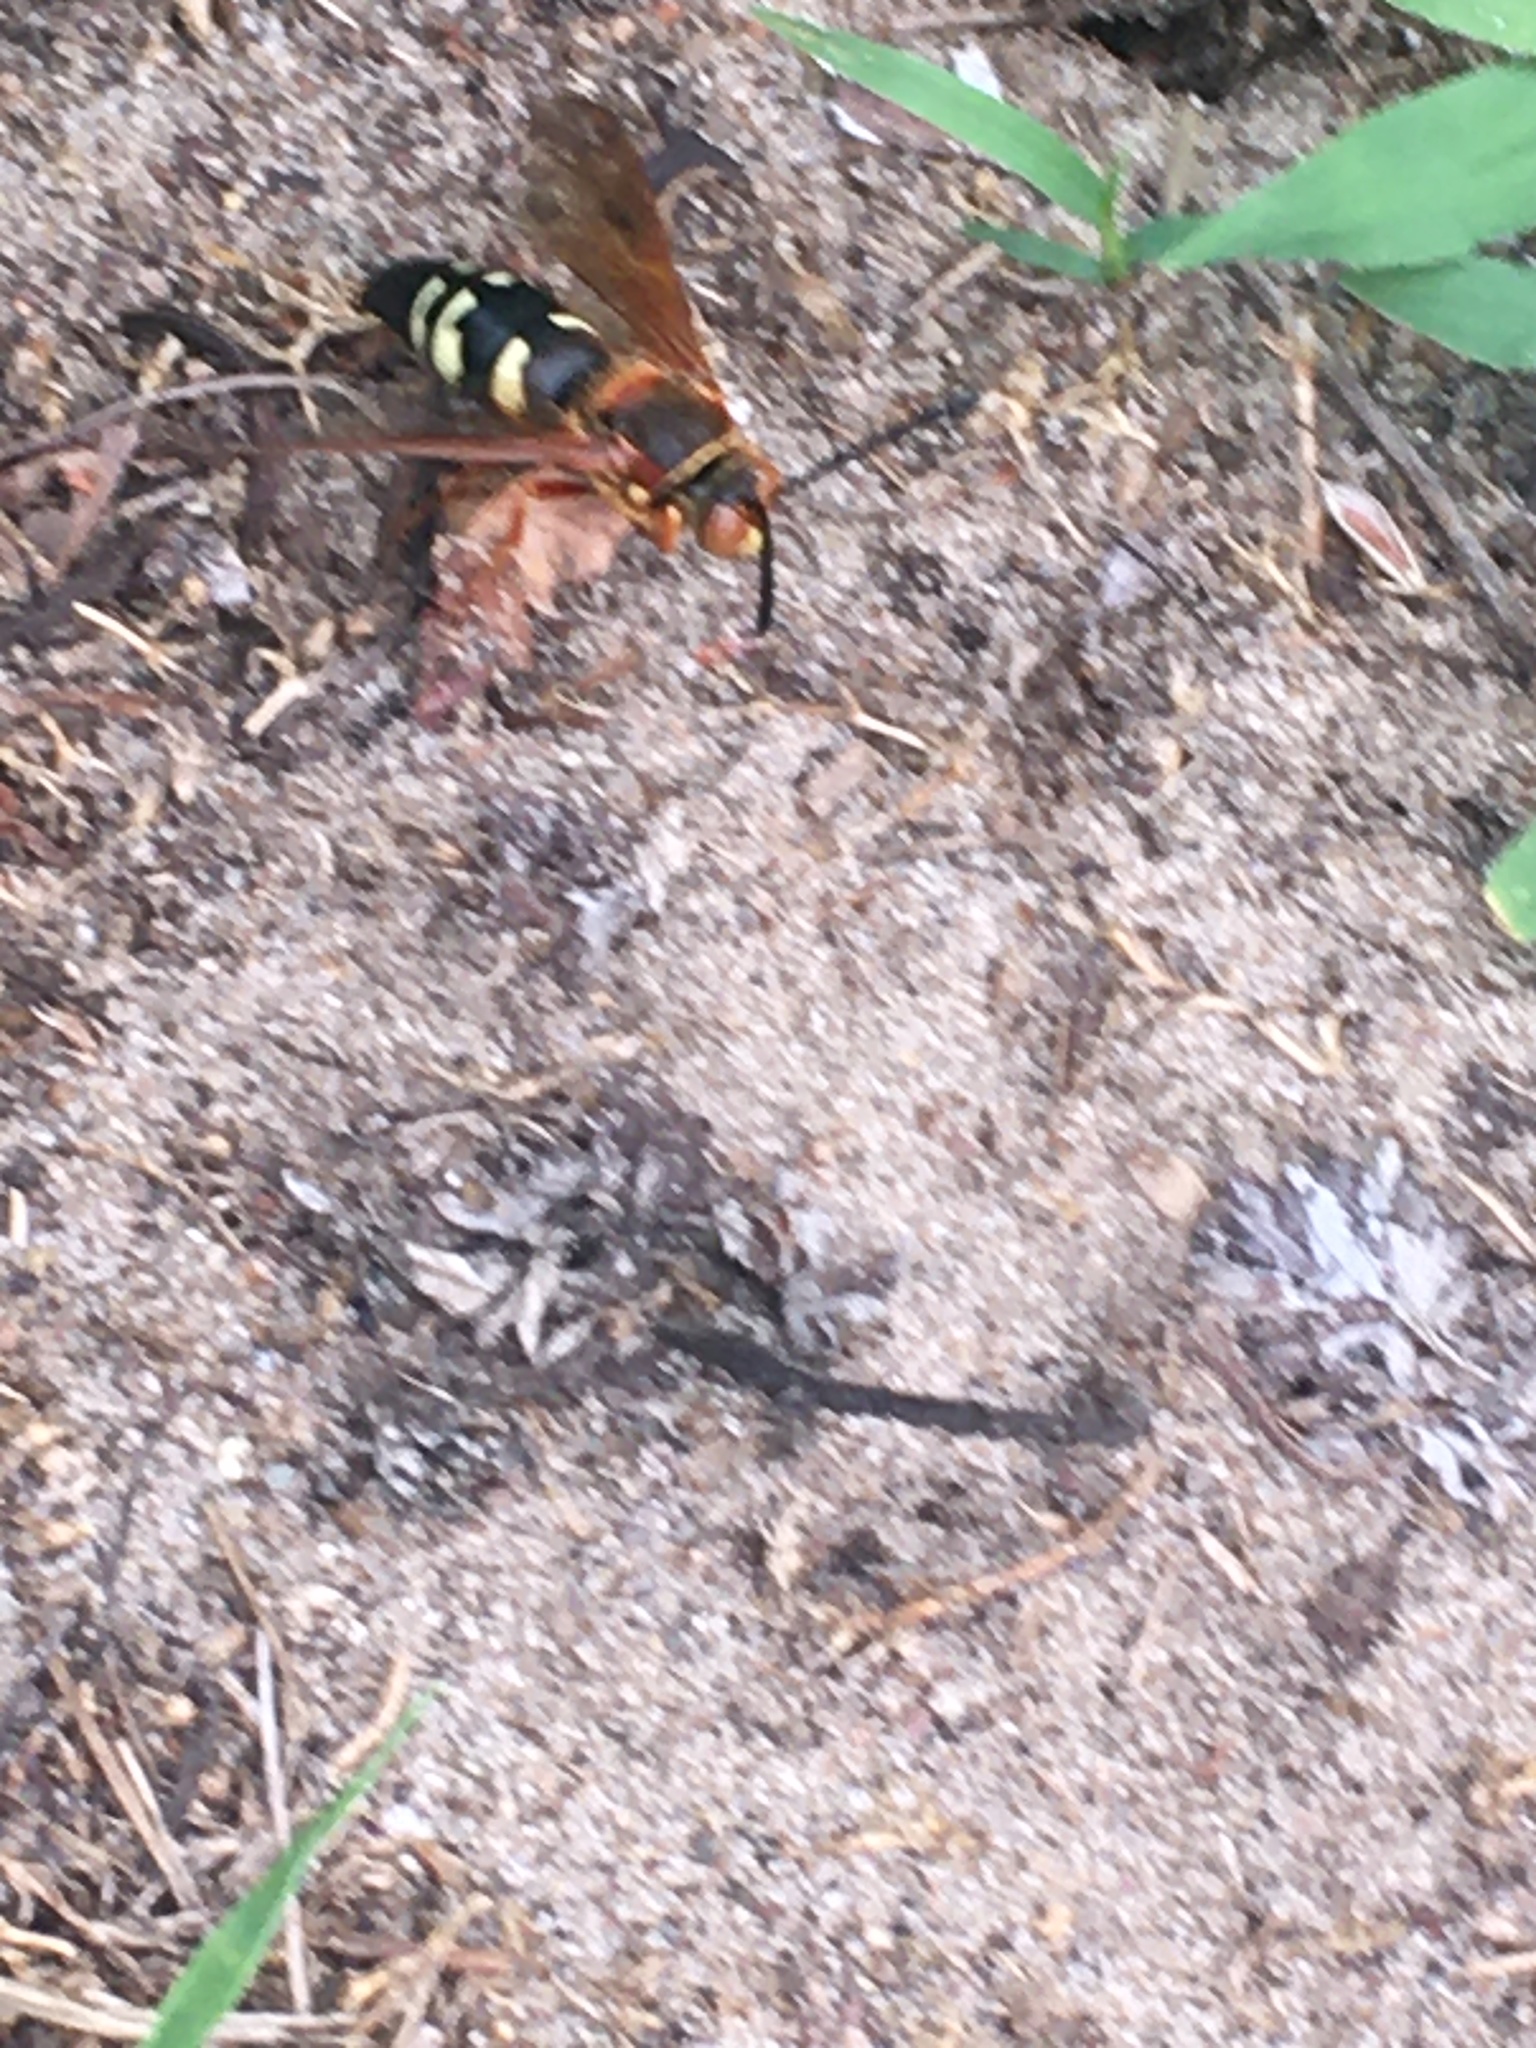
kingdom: Animalia
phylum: Arthropoda
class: Insecta
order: Hymenoptera
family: Crabronidae
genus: Sphecius
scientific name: Sphecius speciosus
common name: Cicada killer
